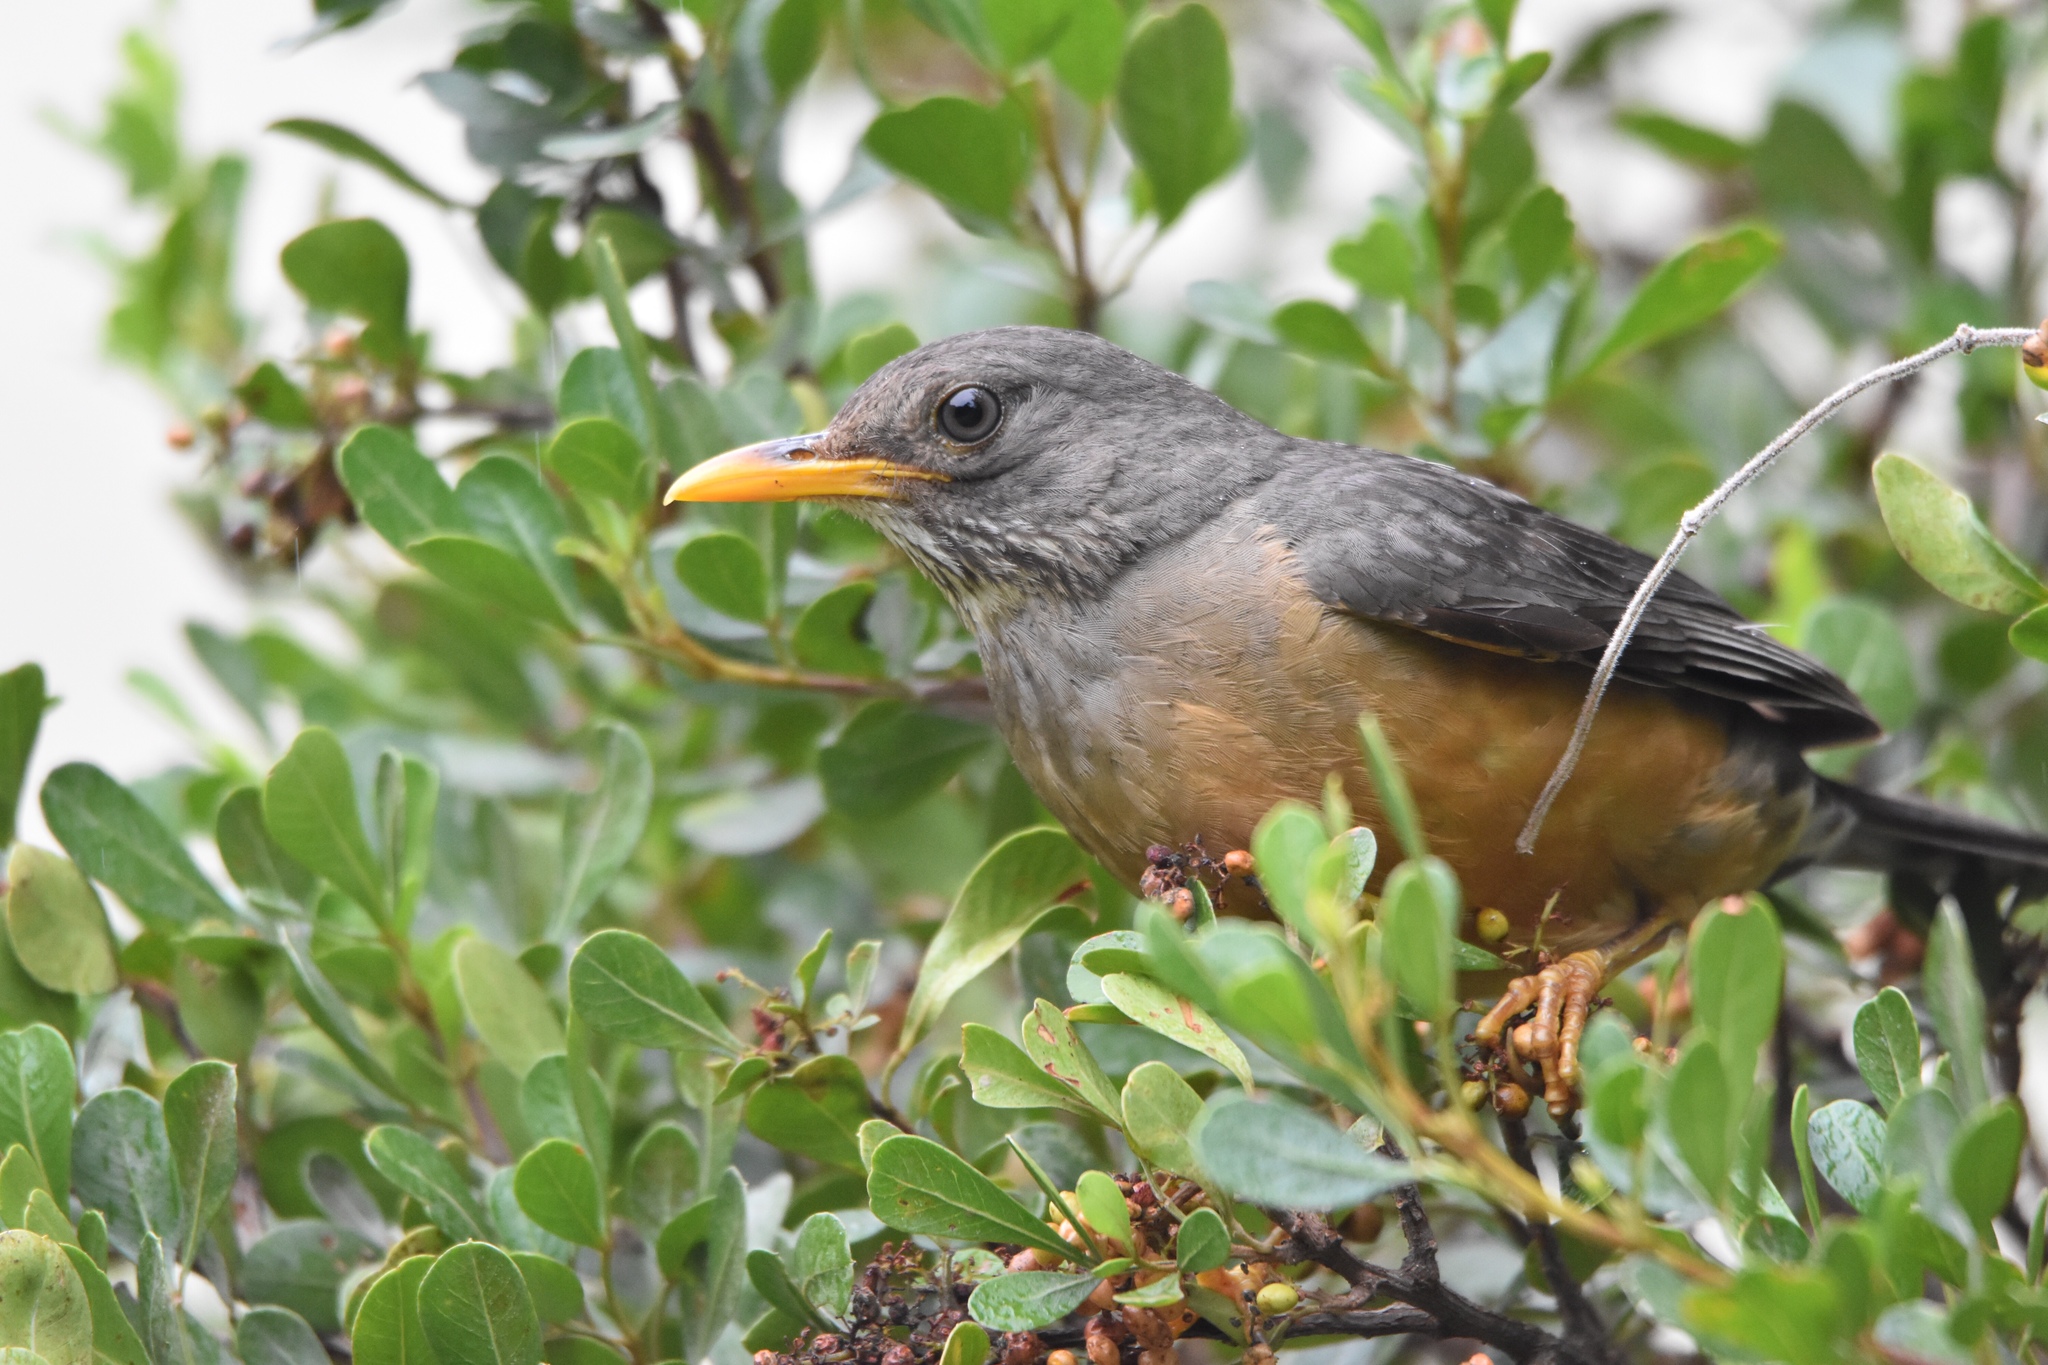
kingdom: Animalia
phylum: Chordata
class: Aves
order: Passeriformes
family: Turdidae
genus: Turdus
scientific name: Turdus olivaceus
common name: Olive thrush
